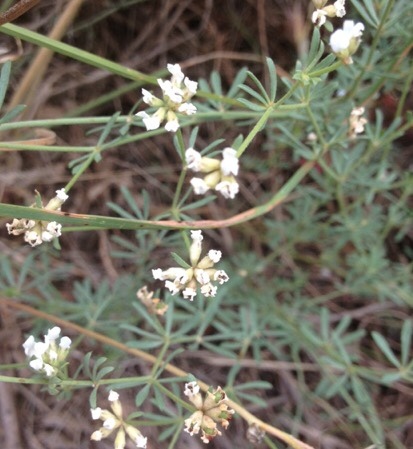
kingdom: Plantae
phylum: Tracheophyta
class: Magnoliopsida
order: Fabales
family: Fabaceae
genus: Lotus
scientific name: Lotus dorycnium
